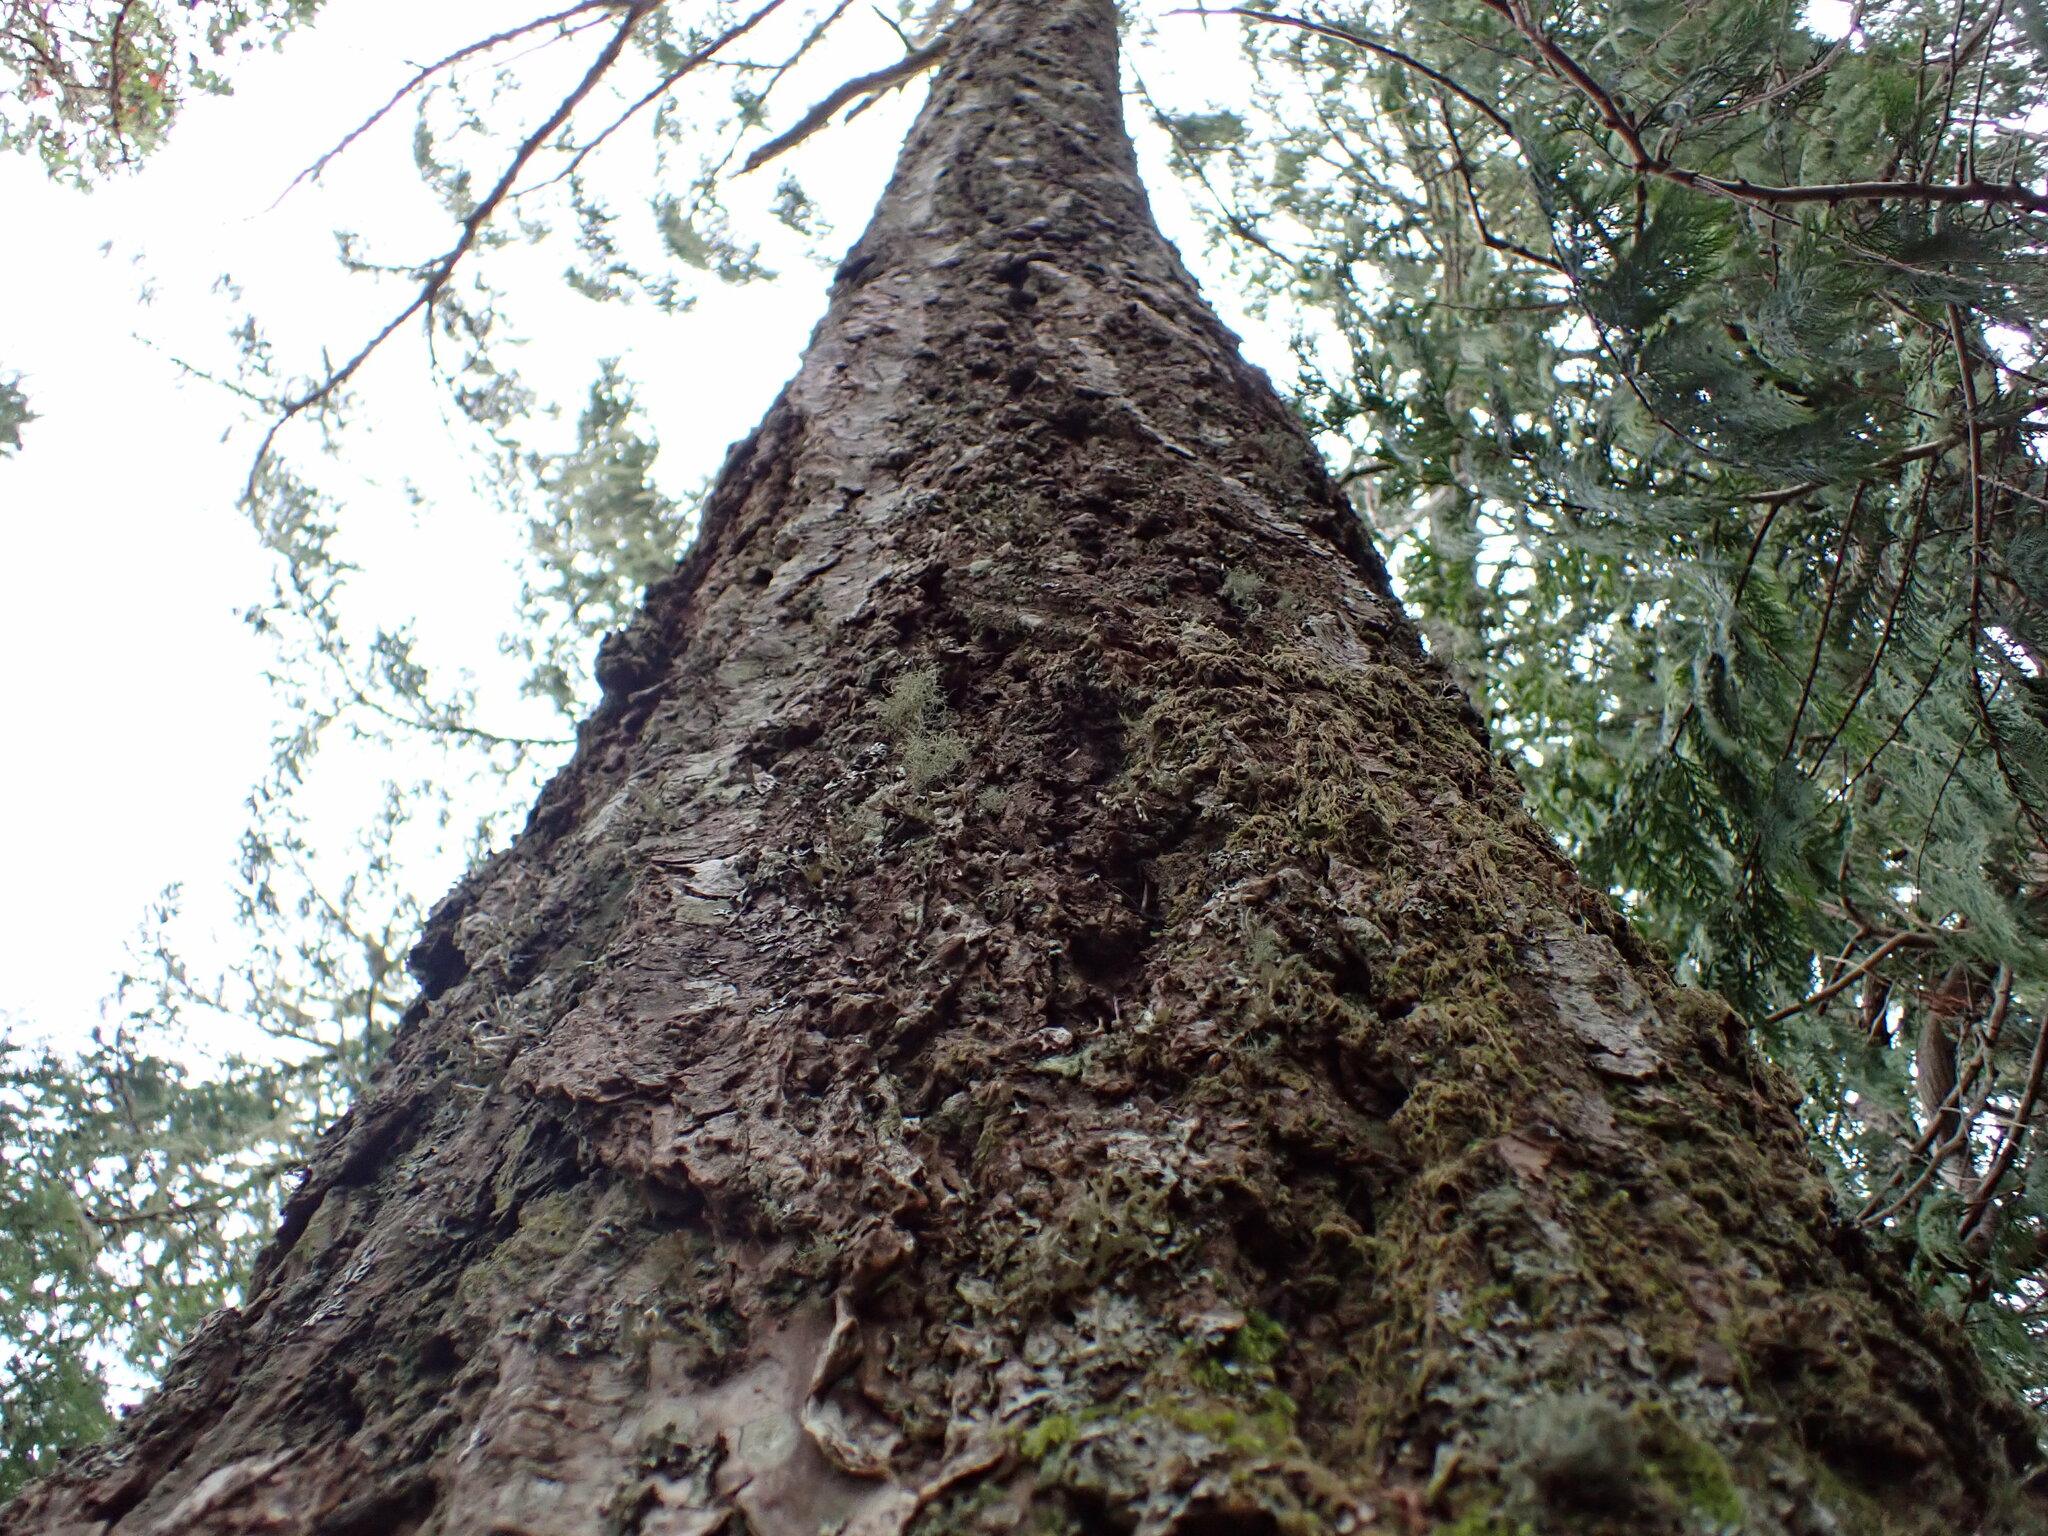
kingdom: Plantae
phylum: Tracheophyta
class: Pinopsida
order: Pinales
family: Pinaceae
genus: Pseudotsuga
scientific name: Pseudotsuga menziesii
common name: Douglas fir
